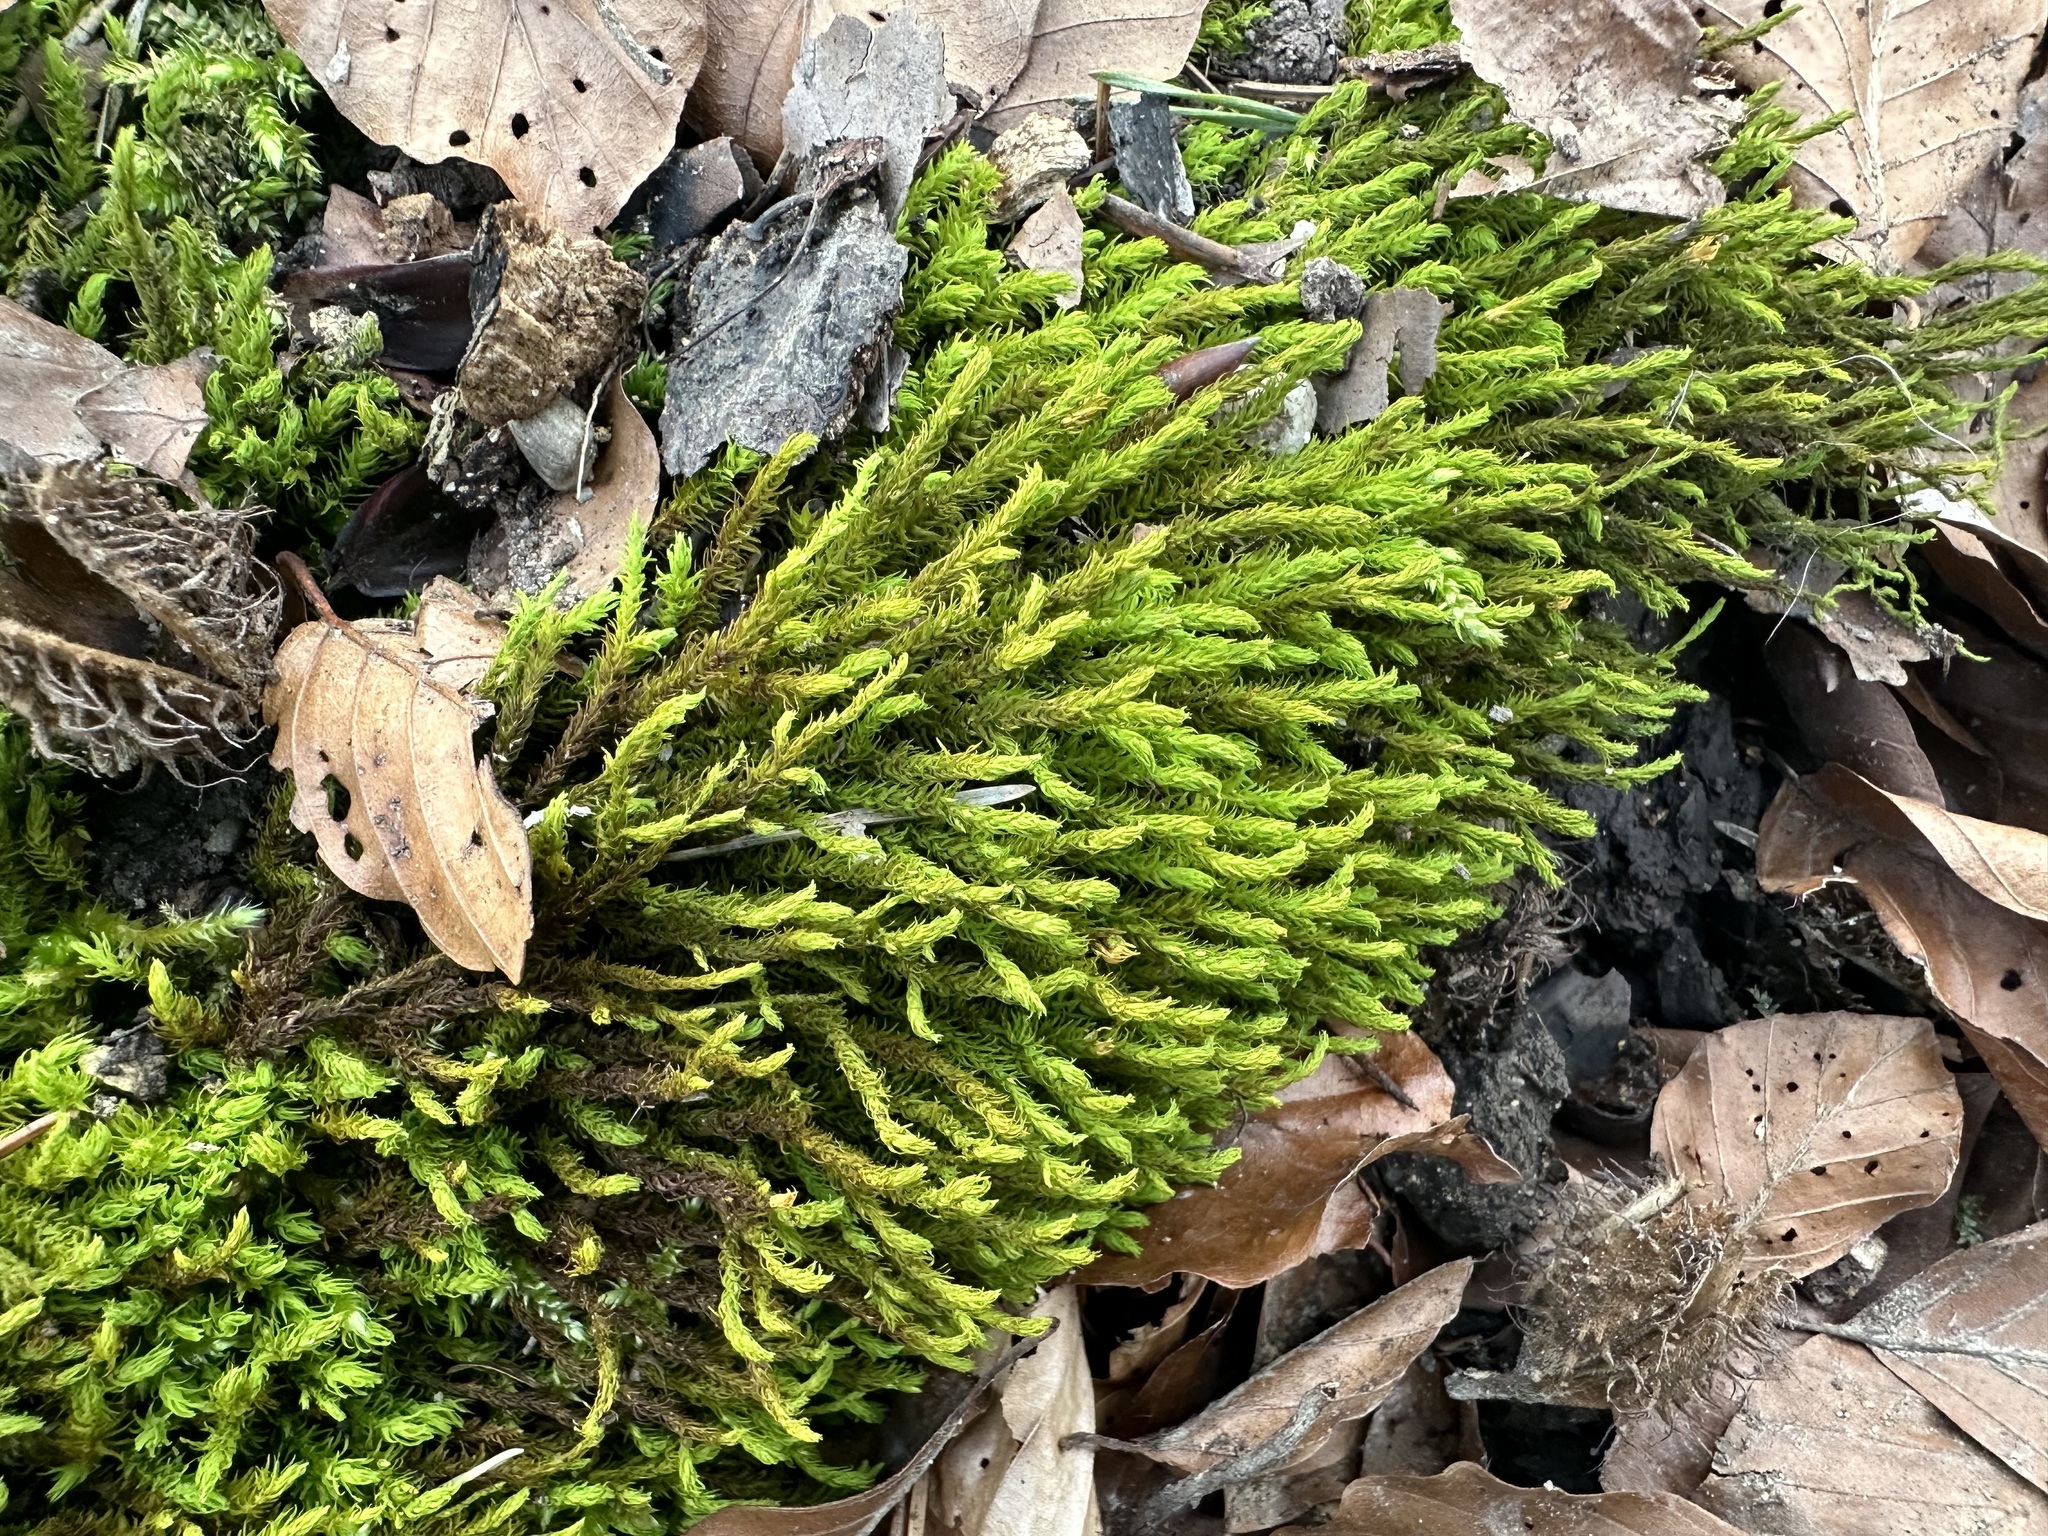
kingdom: Plantae
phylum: Bryophyta
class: Bryopsida
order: Hypnales
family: Anomodontaceae
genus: Anomodon
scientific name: Anomodon viticulosus
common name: Tall anomodon
